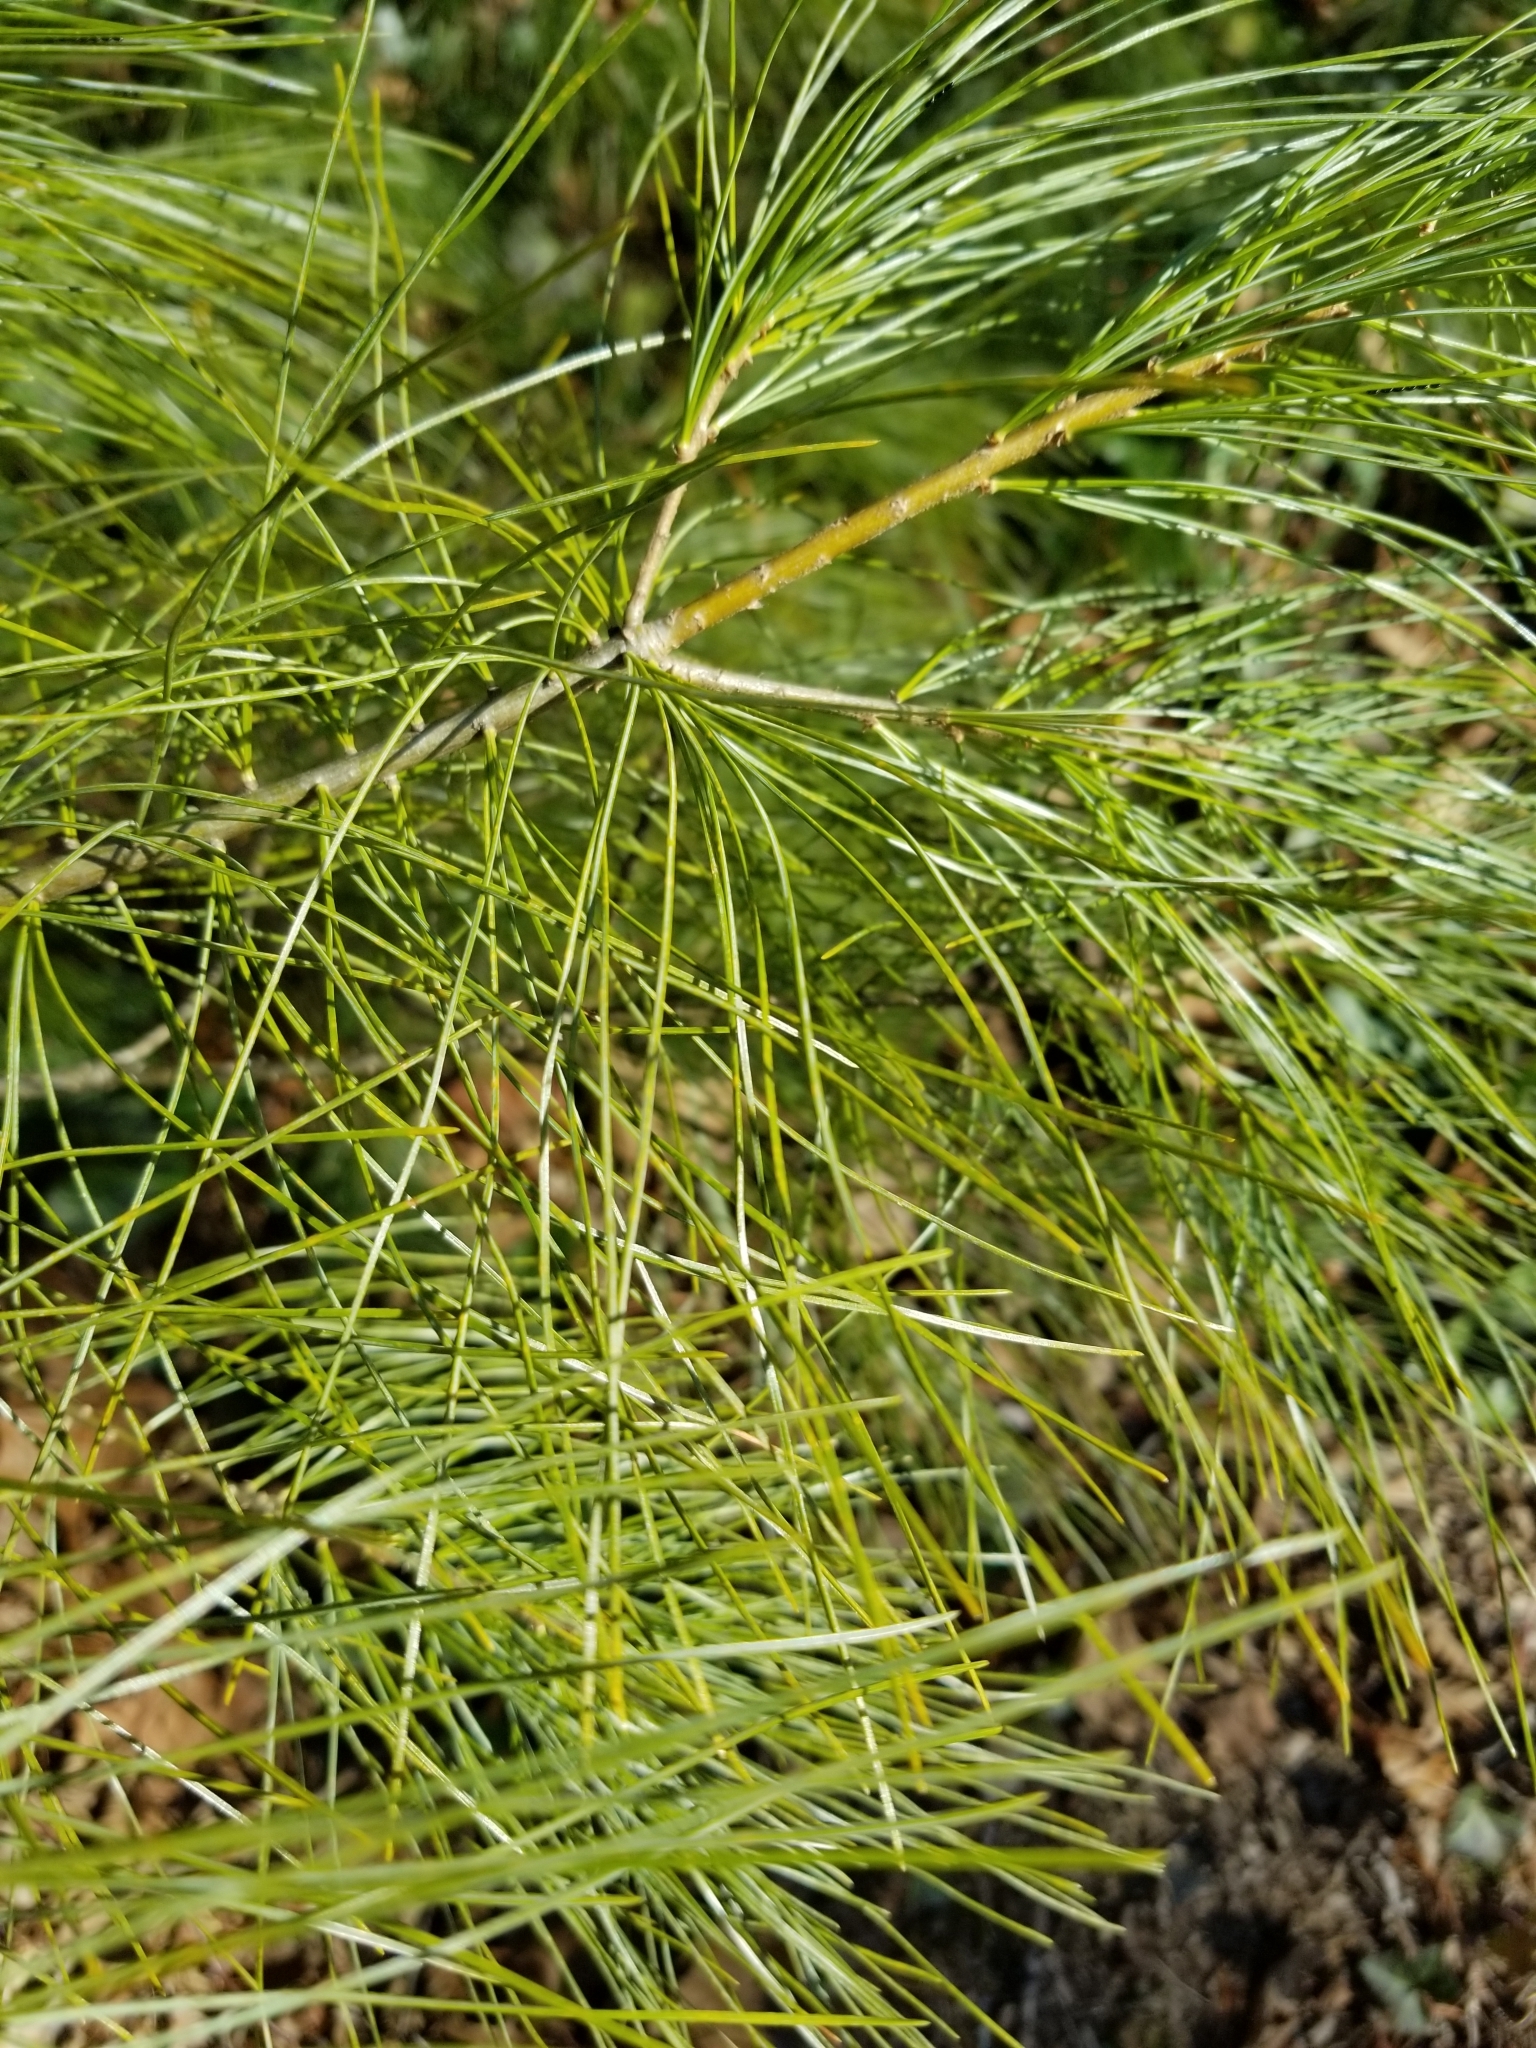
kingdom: Plantae
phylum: Tracheophyta
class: Pinopsida
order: Pinales
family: Pinaceae
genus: Pinus
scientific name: Pinus strobus
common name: Weymouth pine
